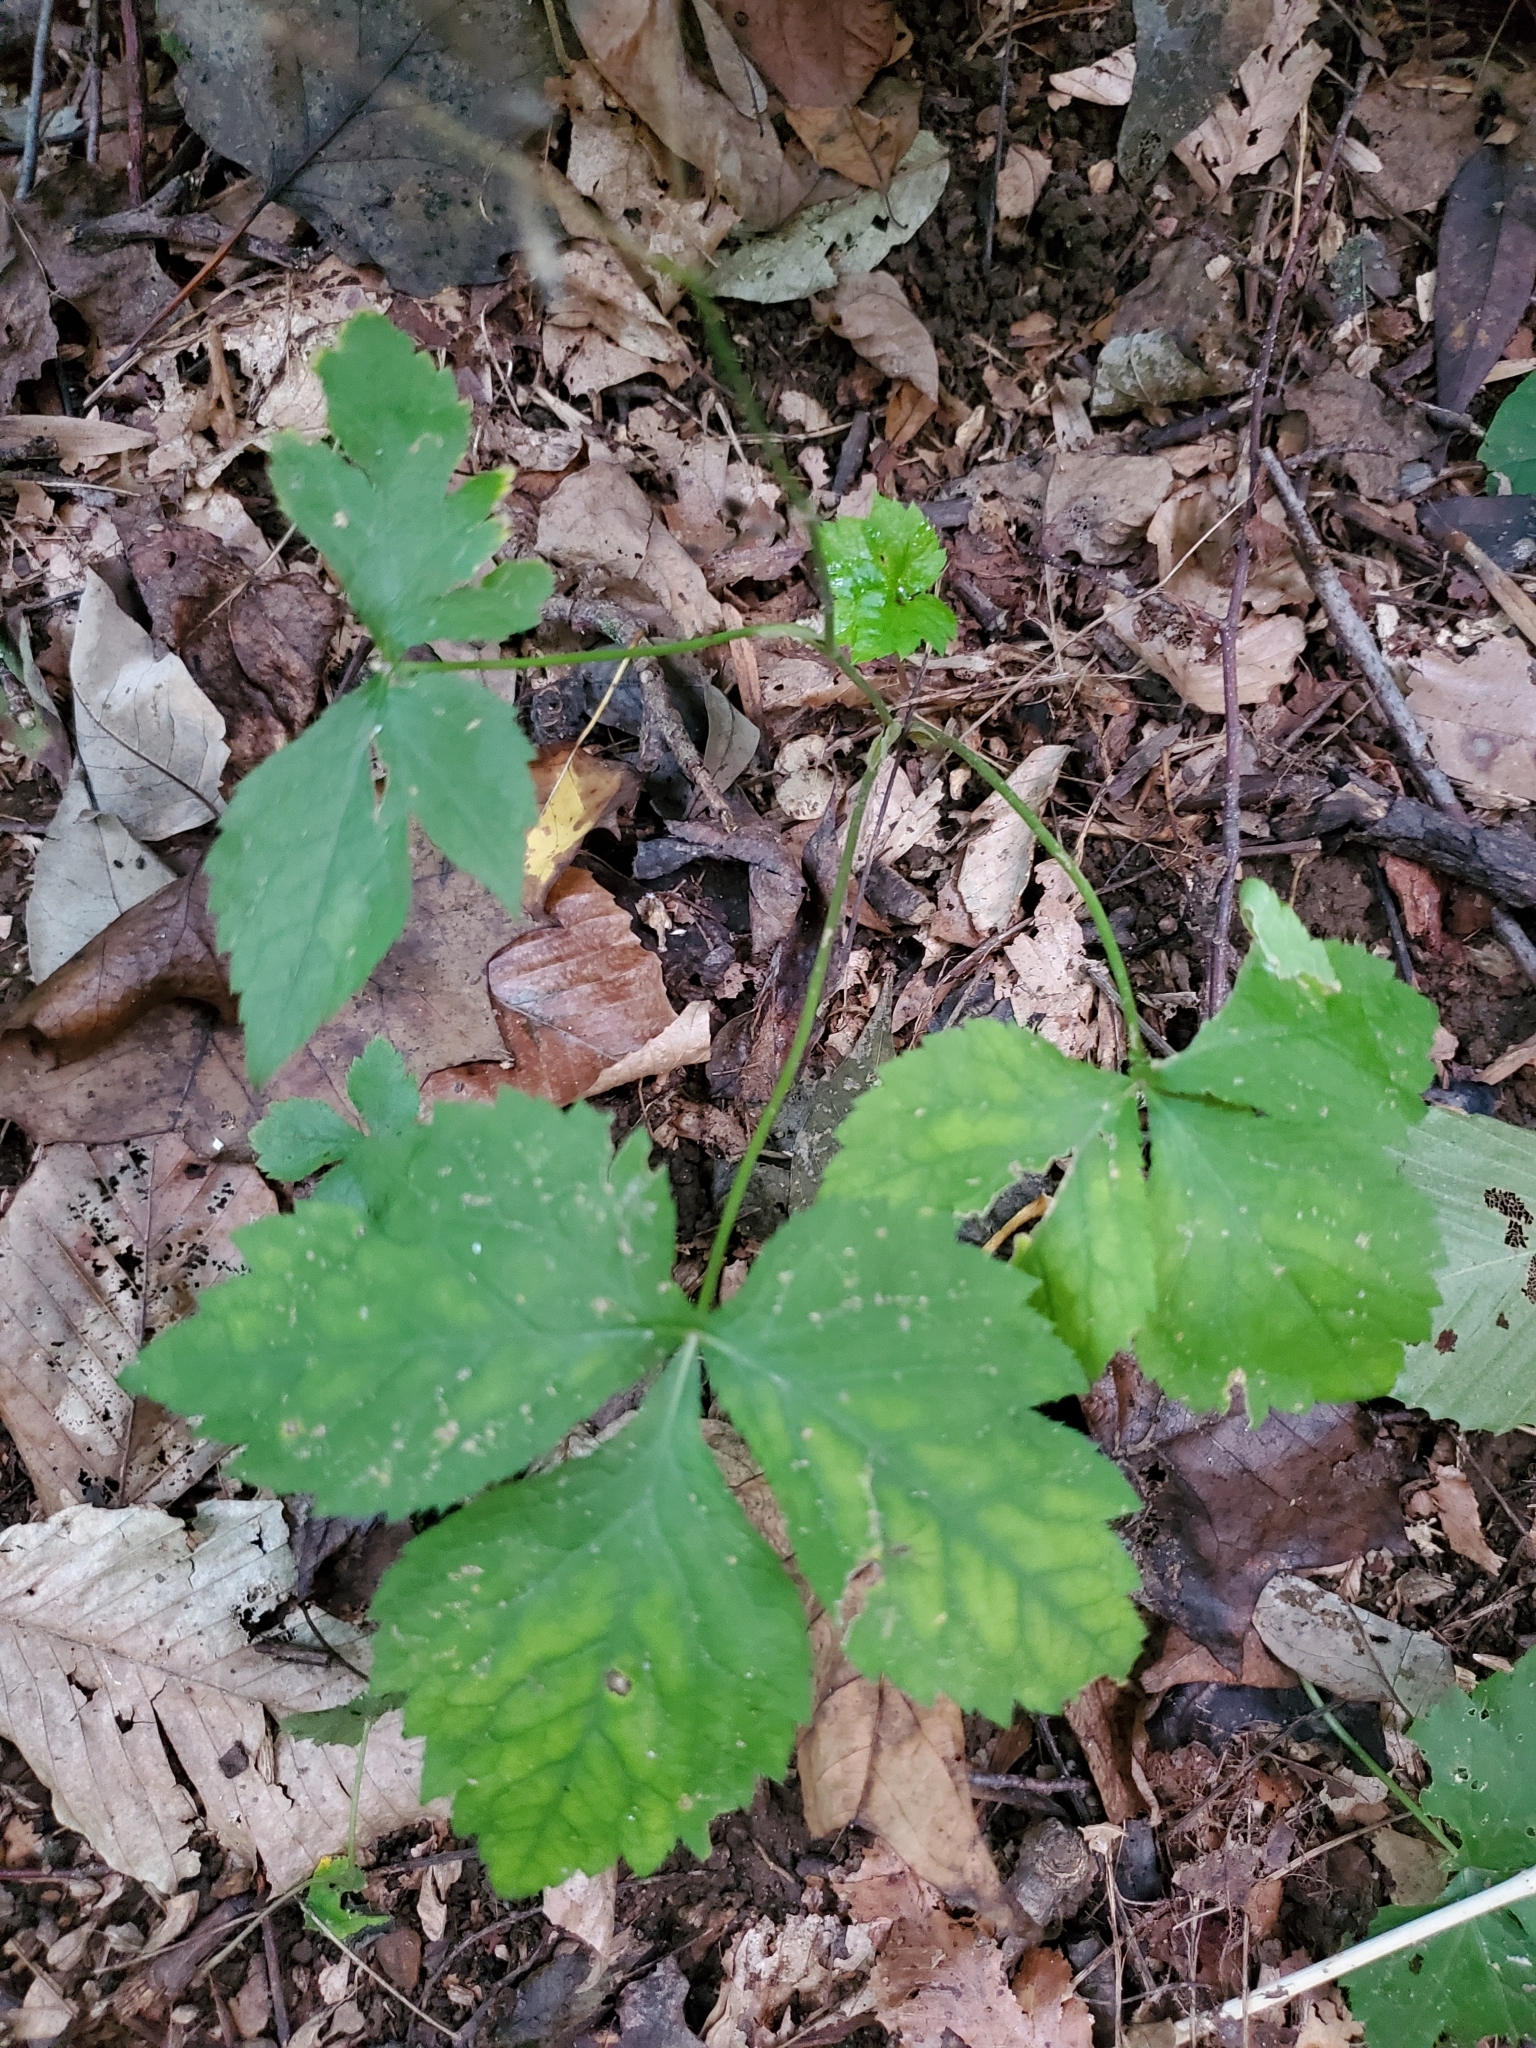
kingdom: Plantae
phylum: Tracheophyta
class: Magnoliopsida
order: Apiales
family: Apiaceae
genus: Cryptotaenia
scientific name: Cryptotaenia canadensis
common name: Honewort
